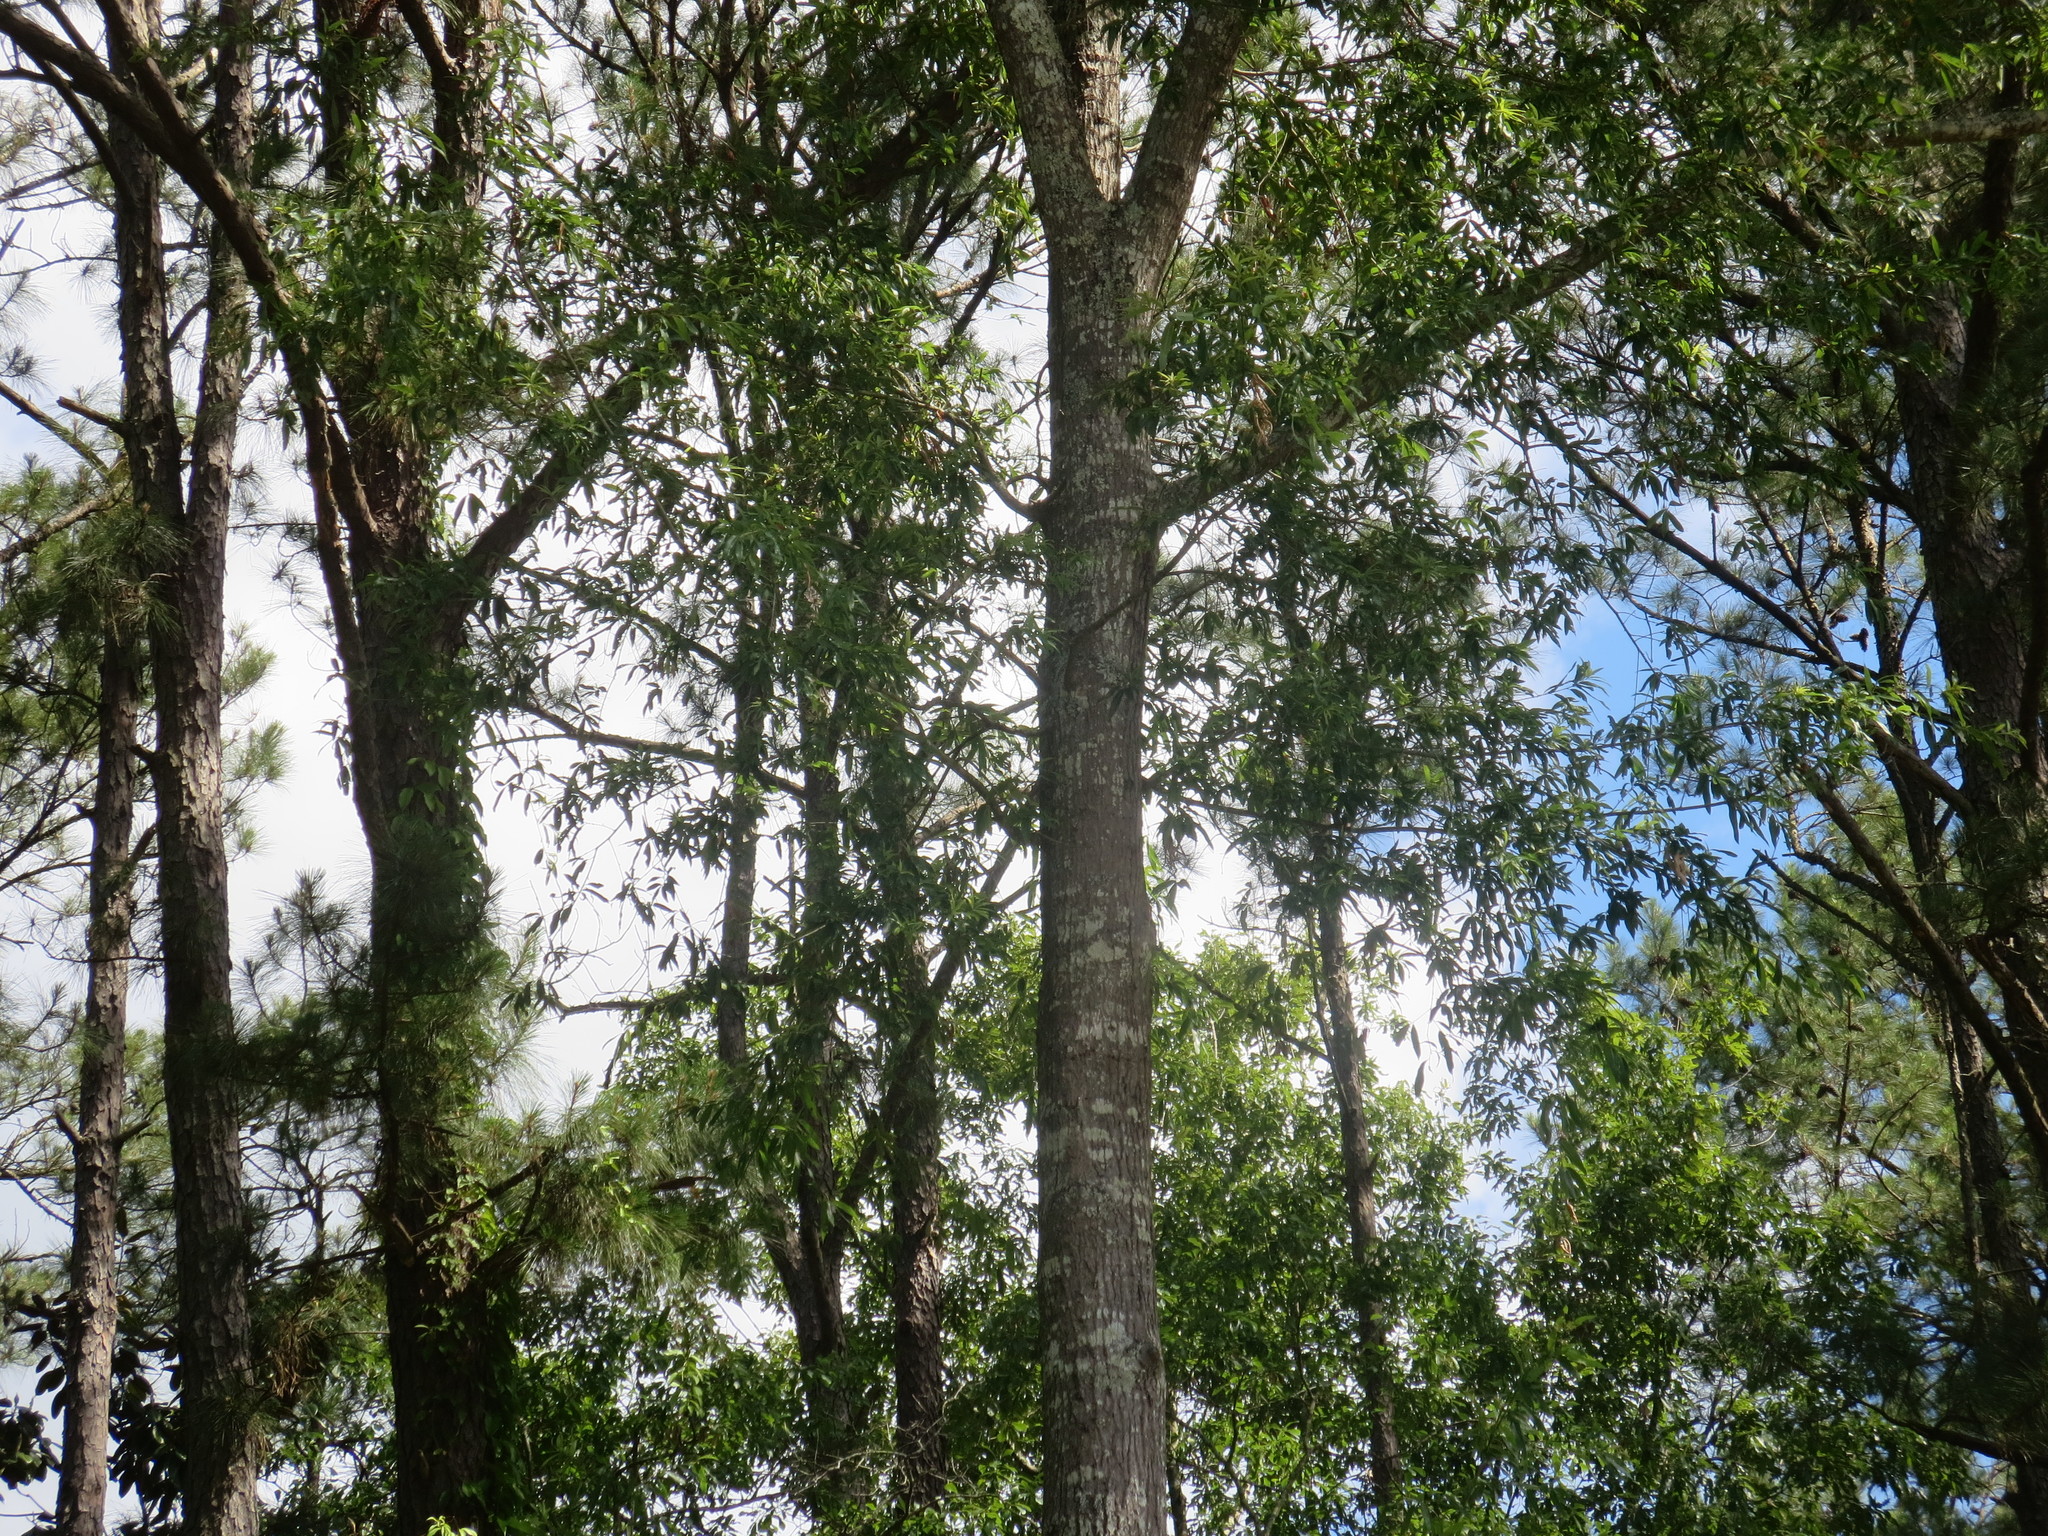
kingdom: Plantae
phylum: Tracheophyta
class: Magnoliopsida
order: Fagales
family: Fagaceae
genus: Quercus
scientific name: Quercus phellos
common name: Willow oak
